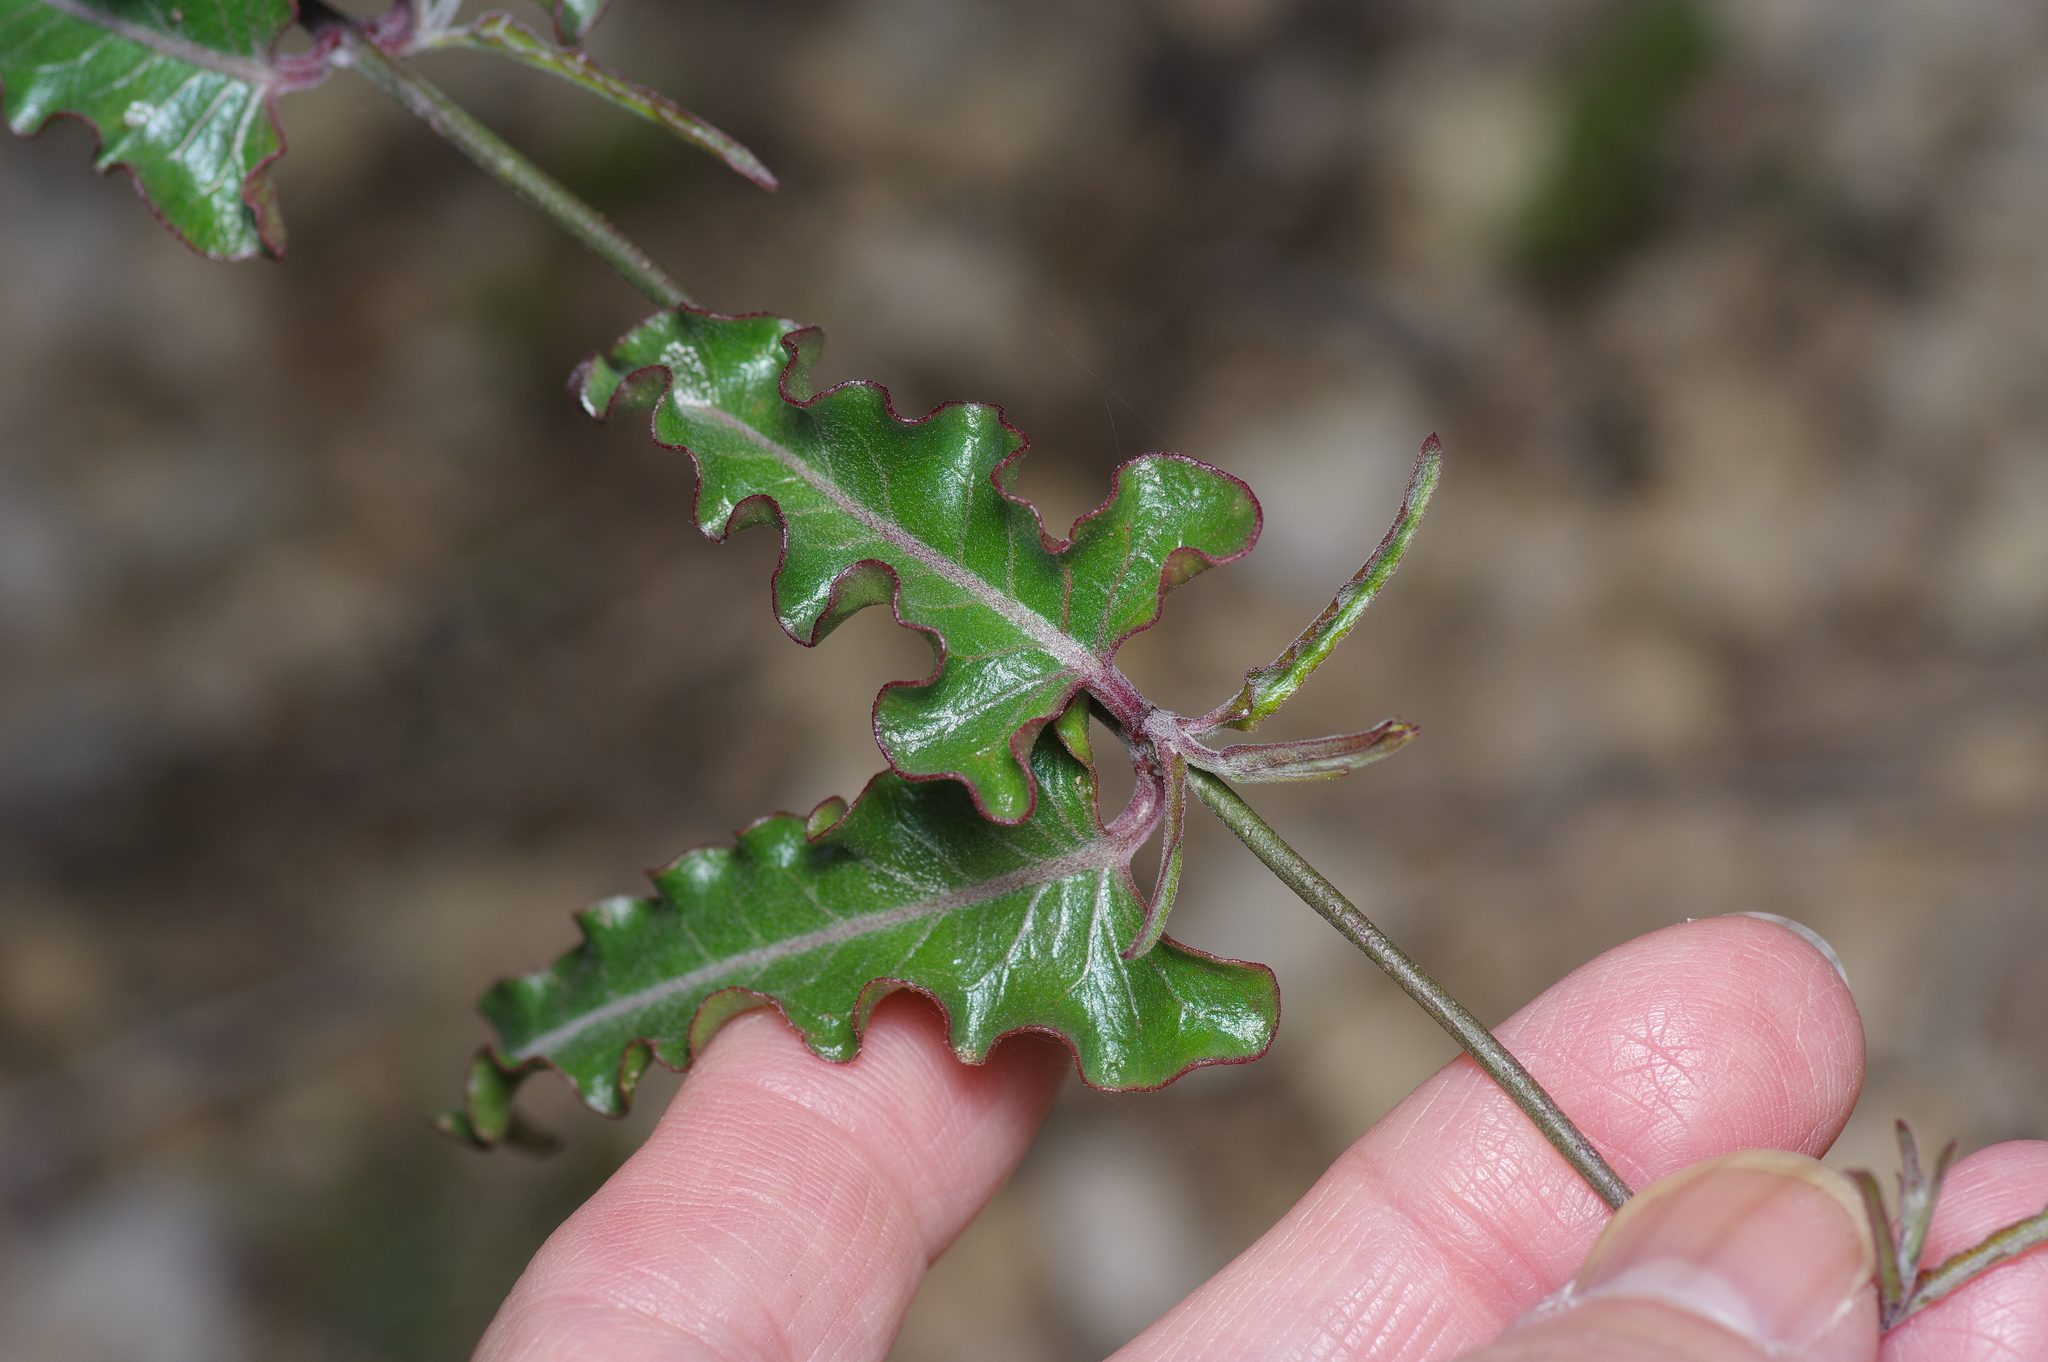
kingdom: Plantae
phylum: Tracheophyta
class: Magnoliopsida
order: Gentianales
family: Apocynaceae
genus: Funastrum
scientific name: Funastrum crispum
